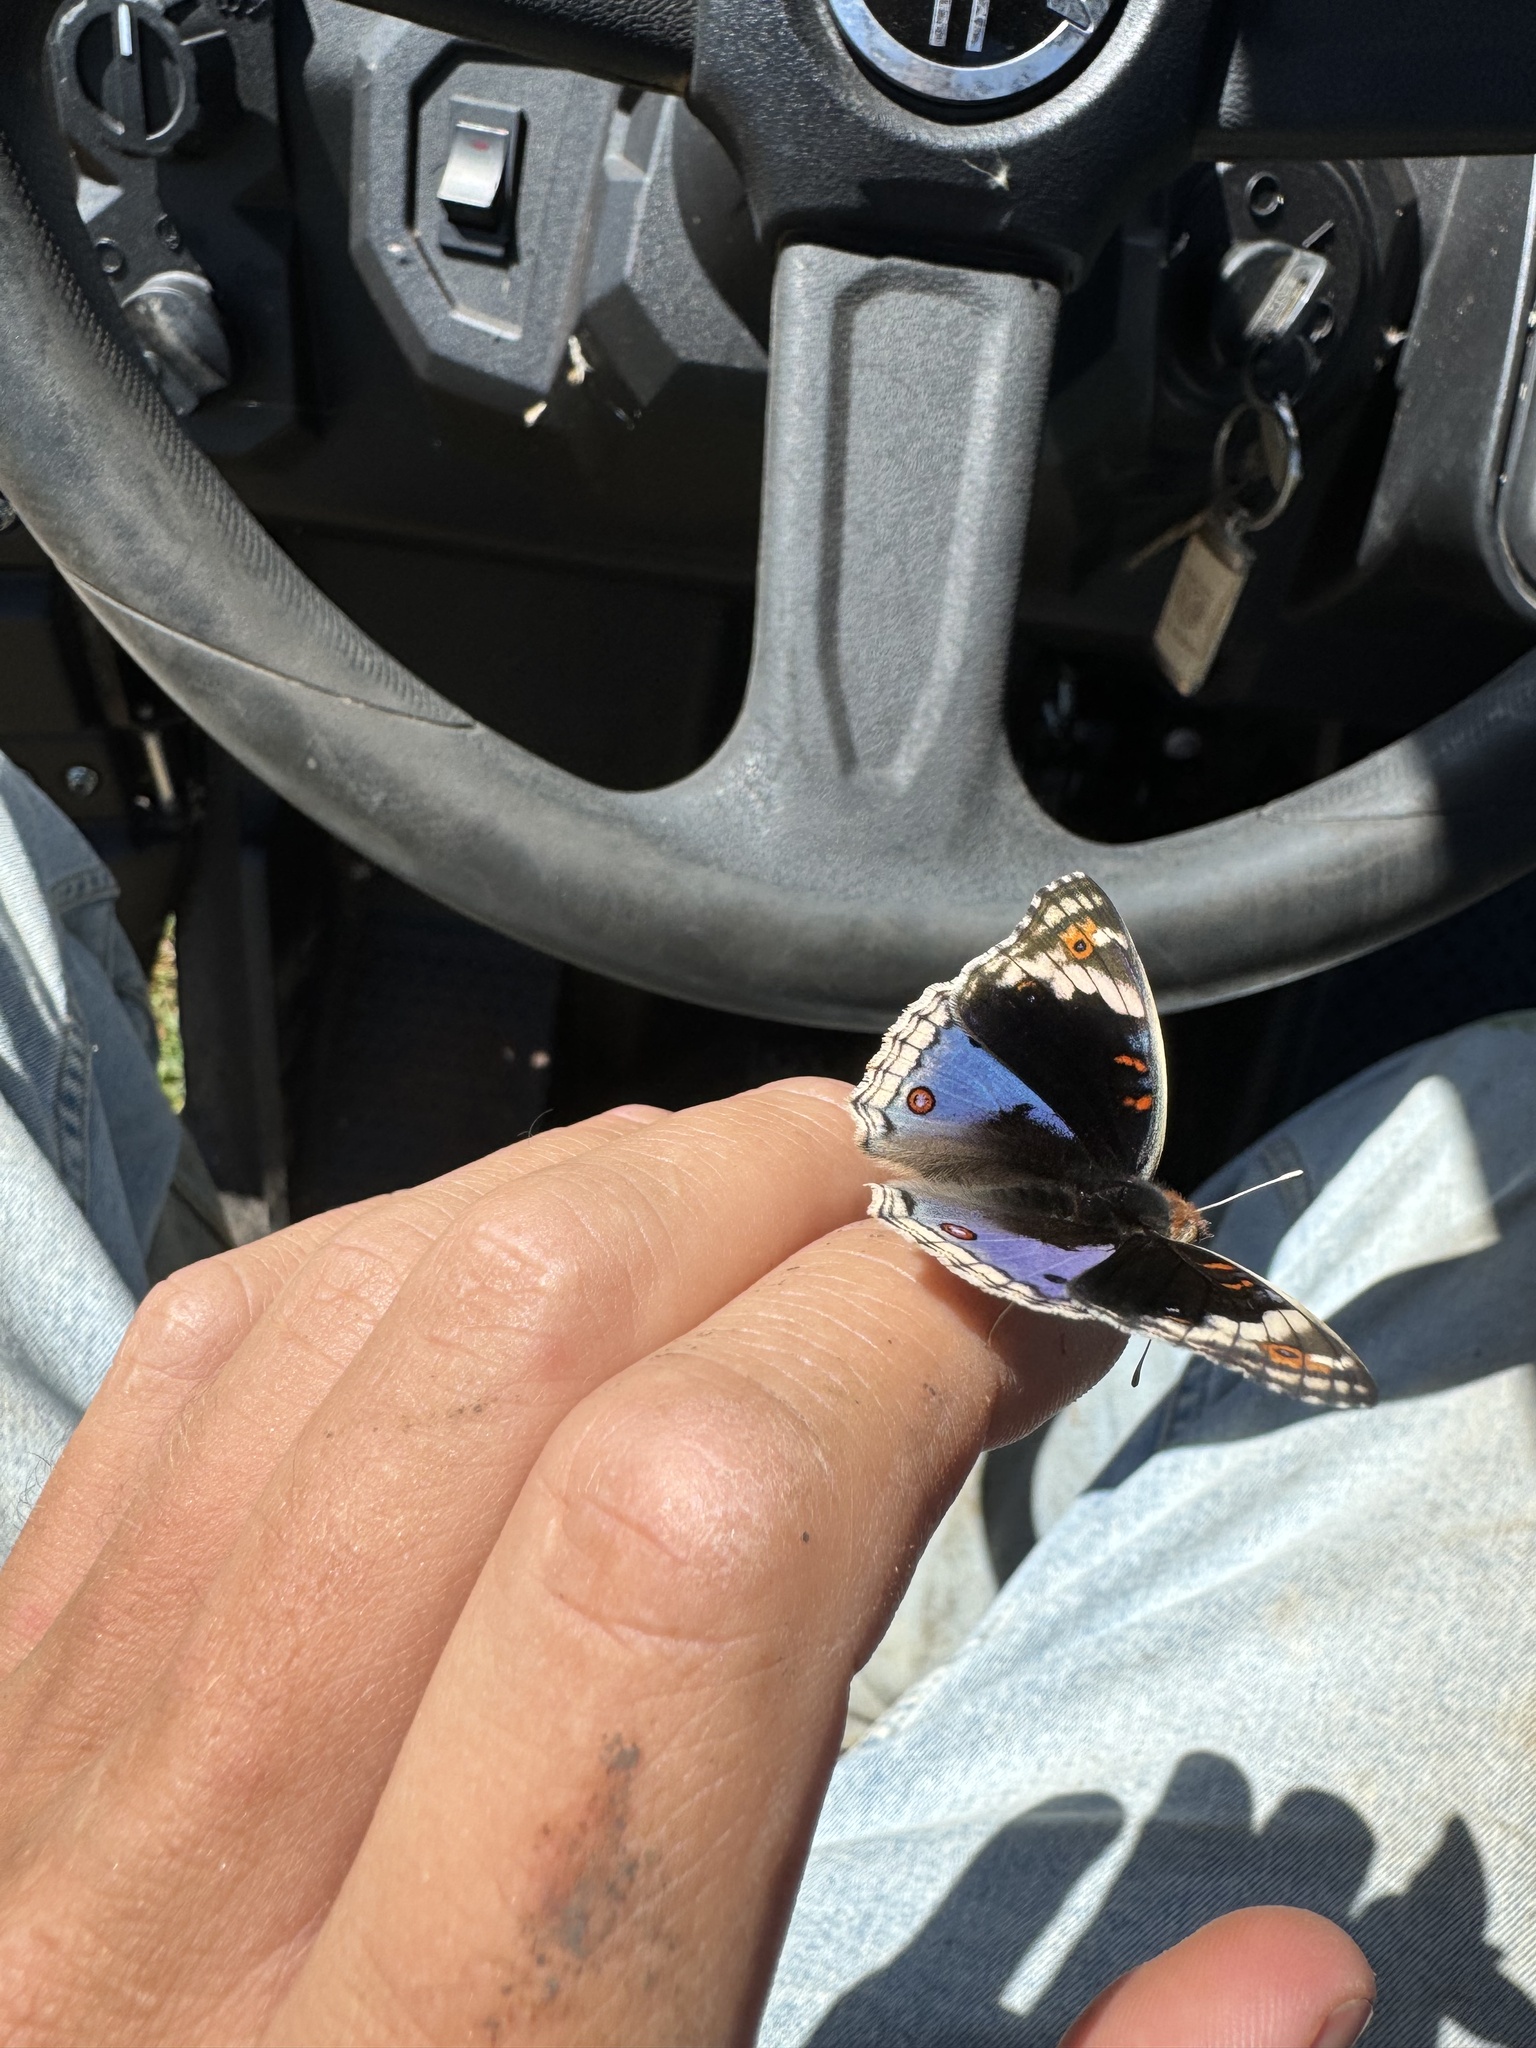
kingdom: Animalia
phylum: Arthropoda
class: Insecta
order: Lepidoptera
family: Nymphalidae
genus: Junonia
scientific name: Junonia orithya
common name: Blue pansy
